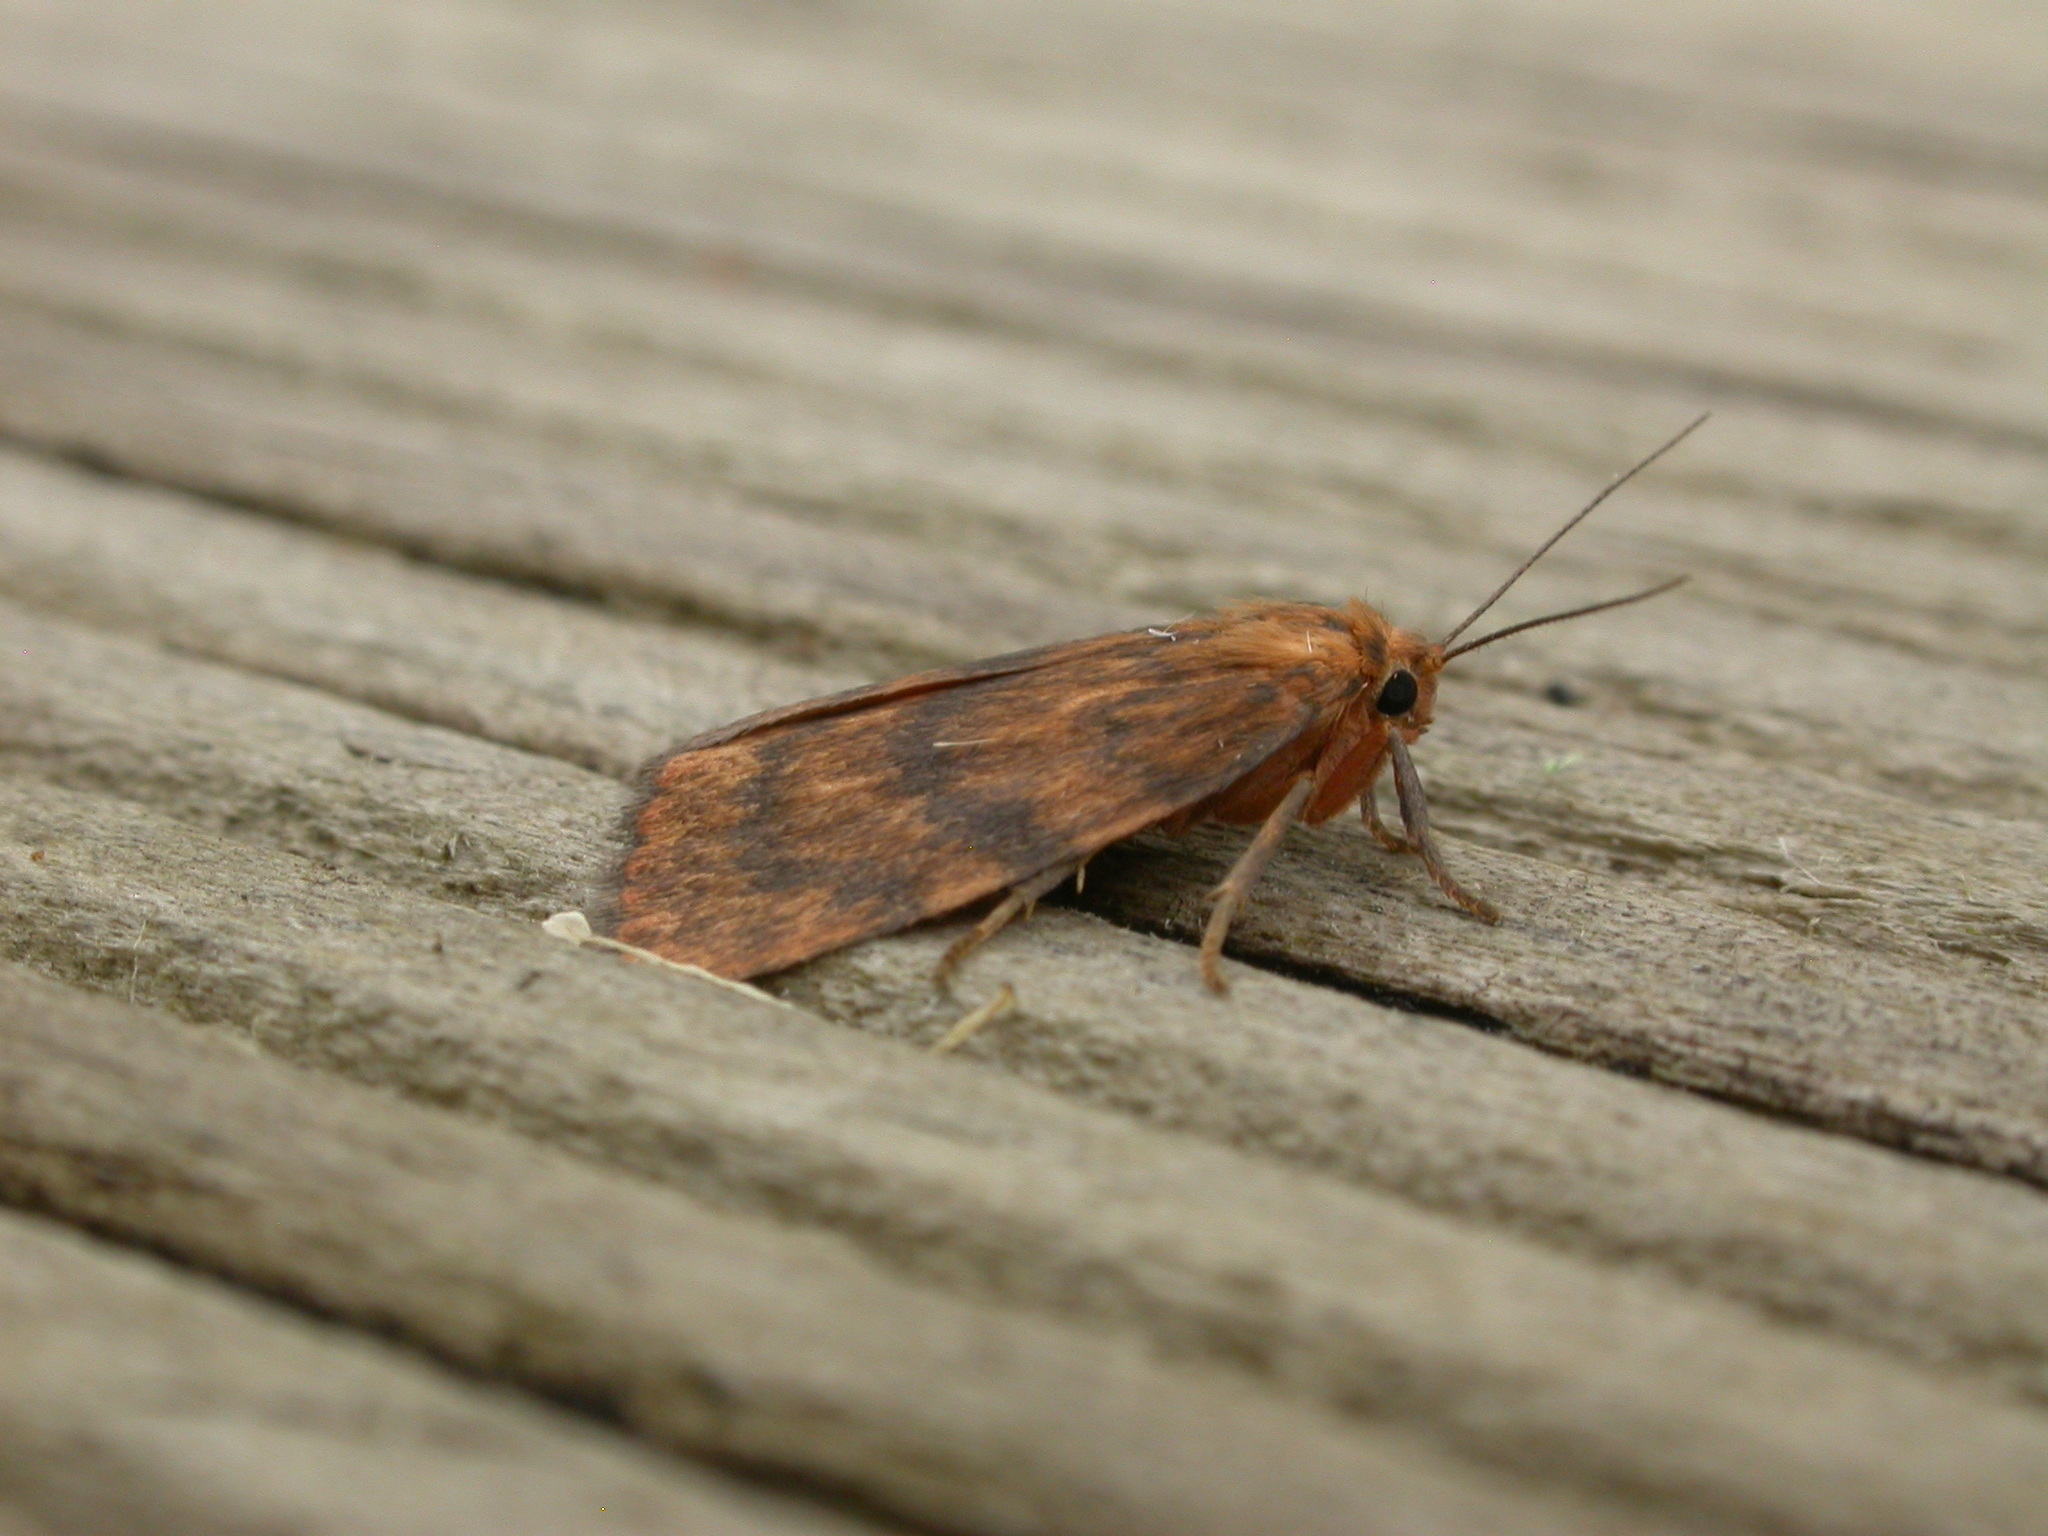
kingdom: Animalia
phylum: Arthropoda
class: Insecta
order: Lepidoptera
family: Erebidae
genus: Cyme
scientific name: Cyme structa
